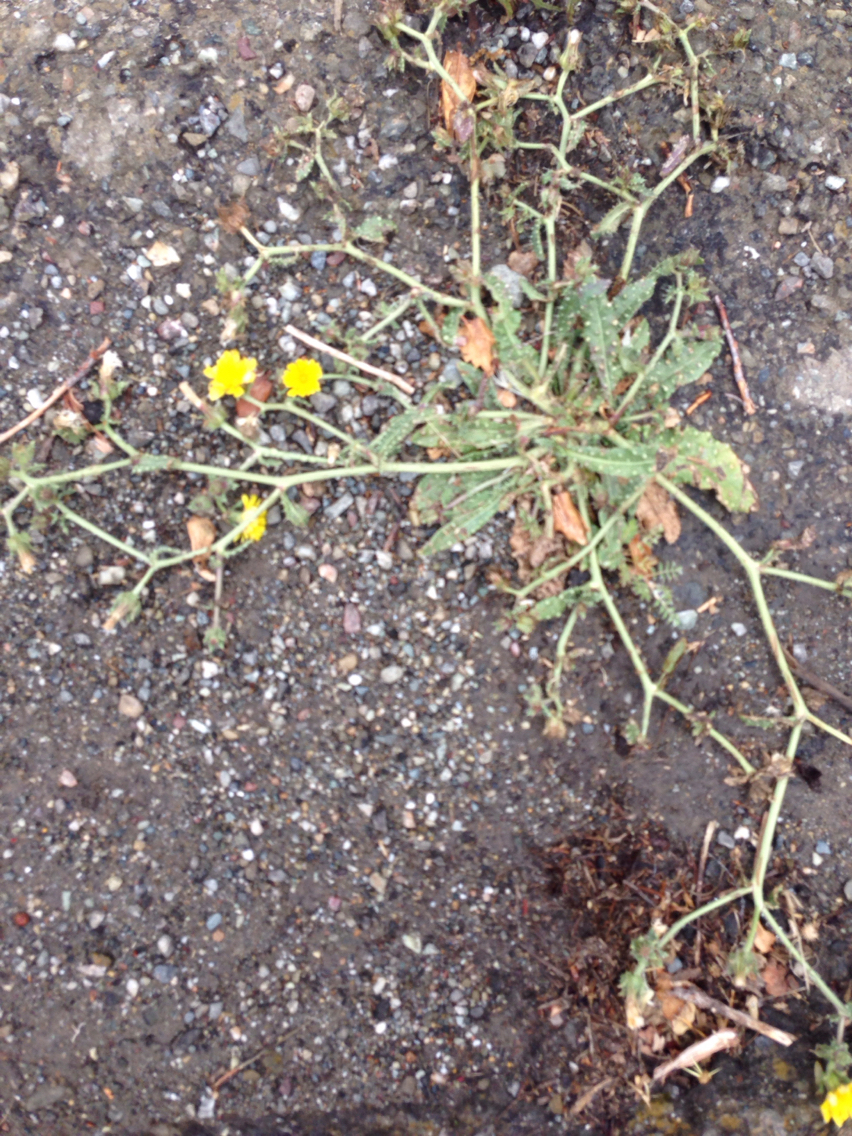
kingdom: Plantae
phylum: Tracheophyta
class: Magnoliopsida
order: Asterales
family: Asteraceae
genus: Helminthotheca
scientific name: Helminthotheca echioides
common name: Ox-tongue
